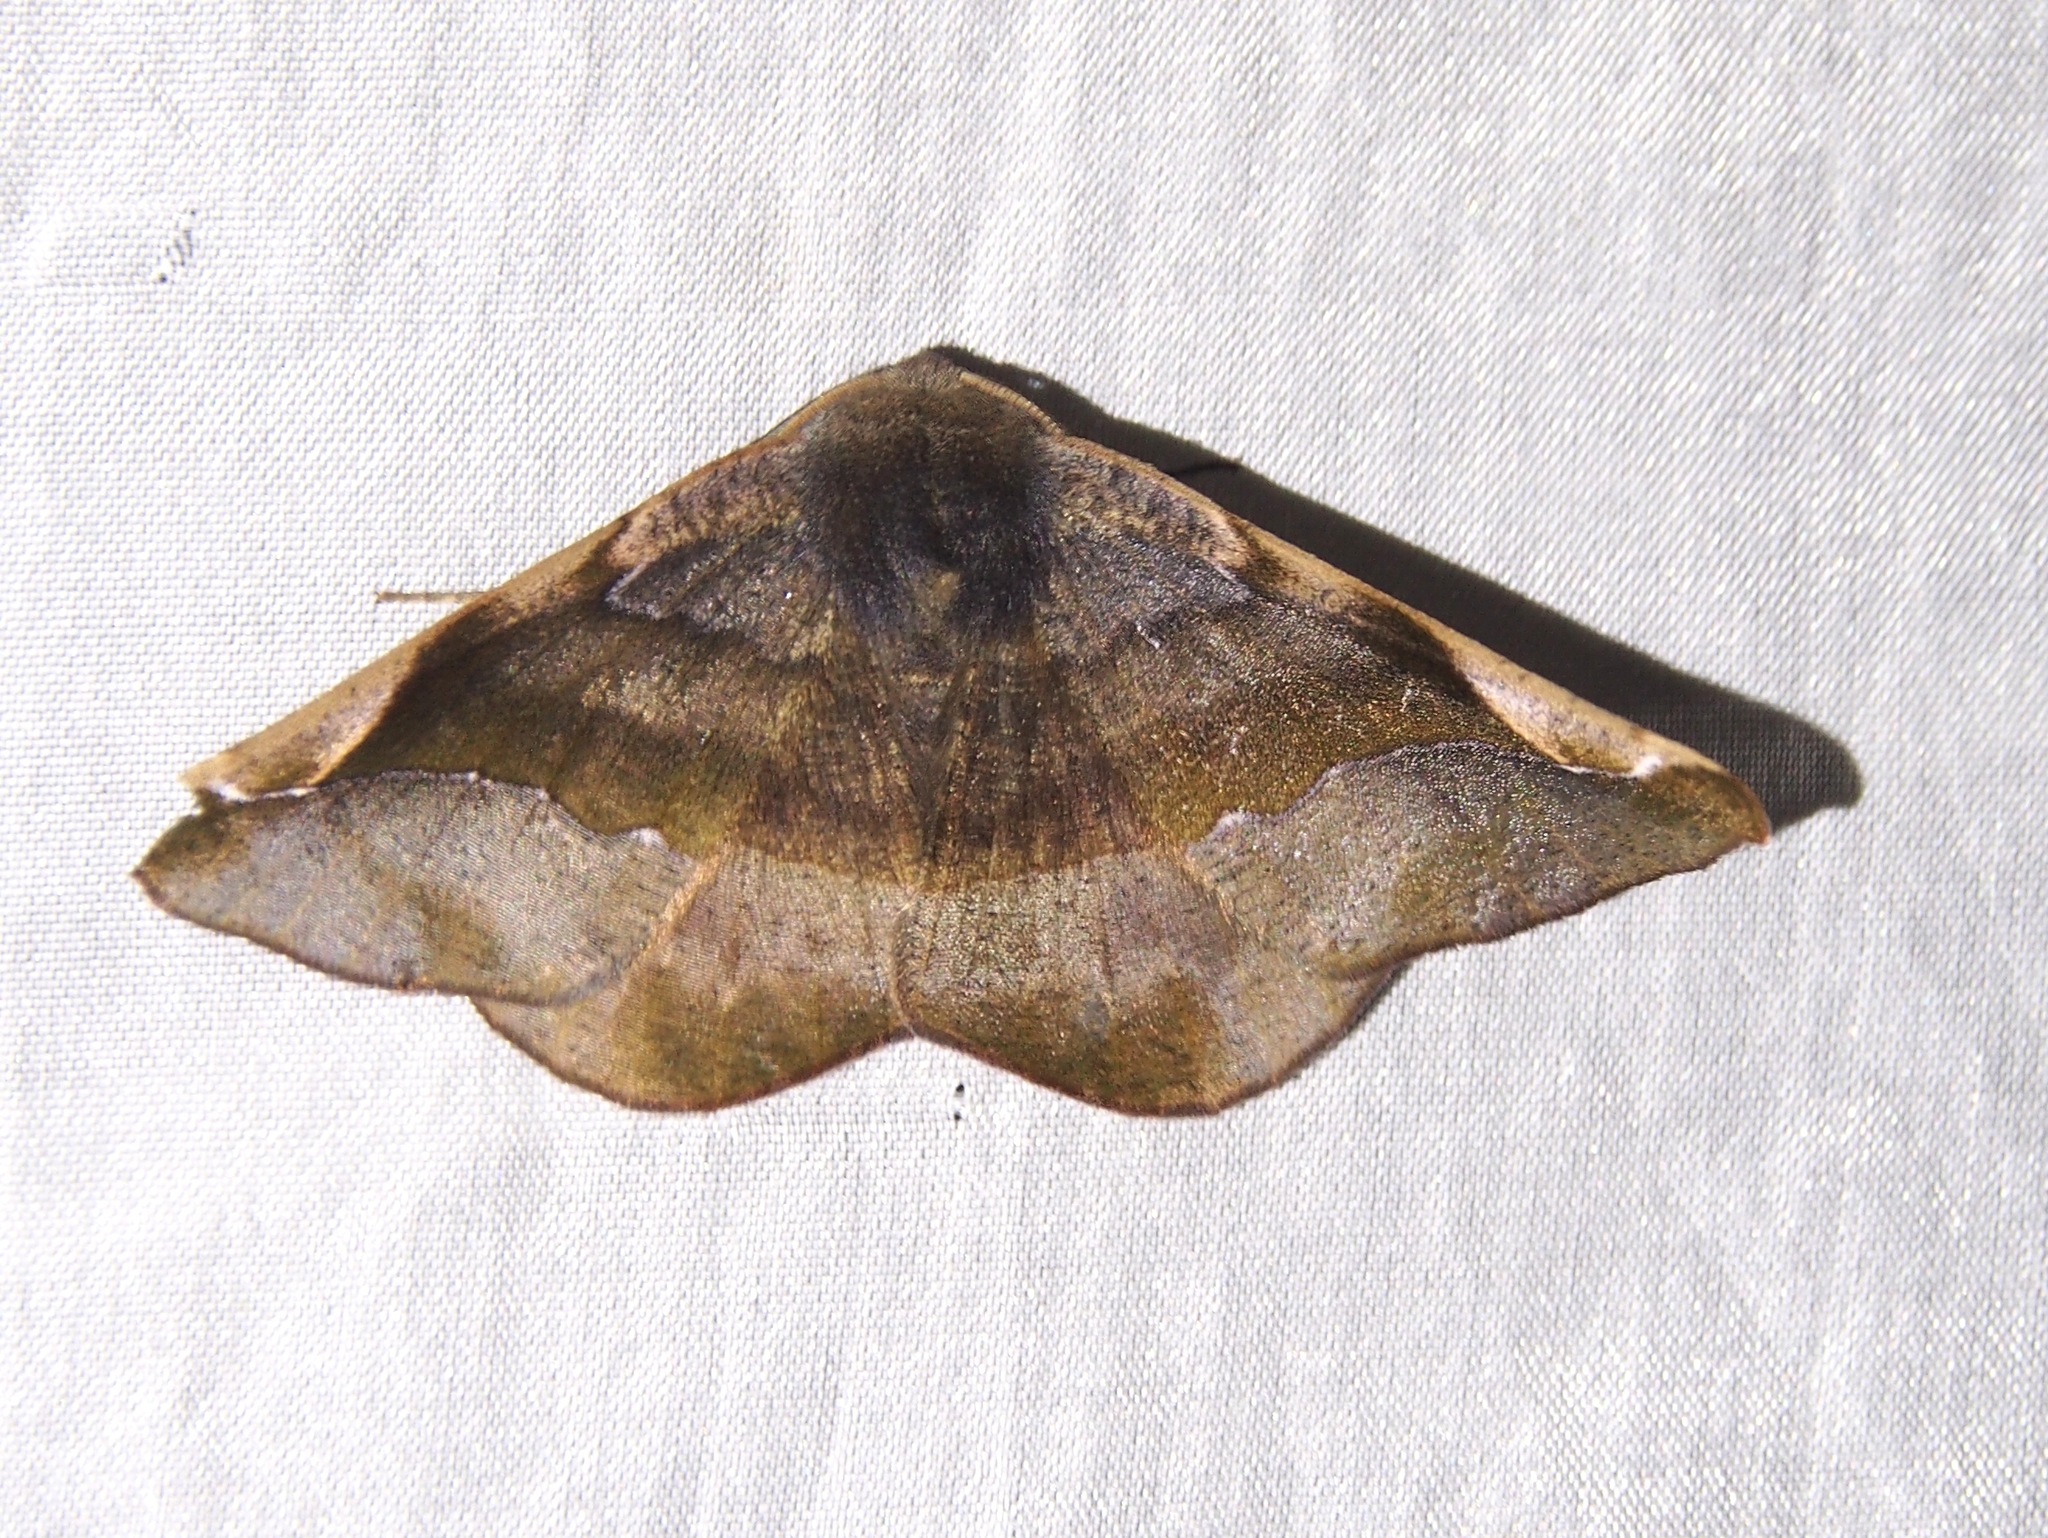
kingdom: Animalia
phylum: Arthropoda
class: Insecta
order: Lepidoptera
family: Geometridae
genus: Hygrochroma
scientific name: Hygrochroma olivinaria
